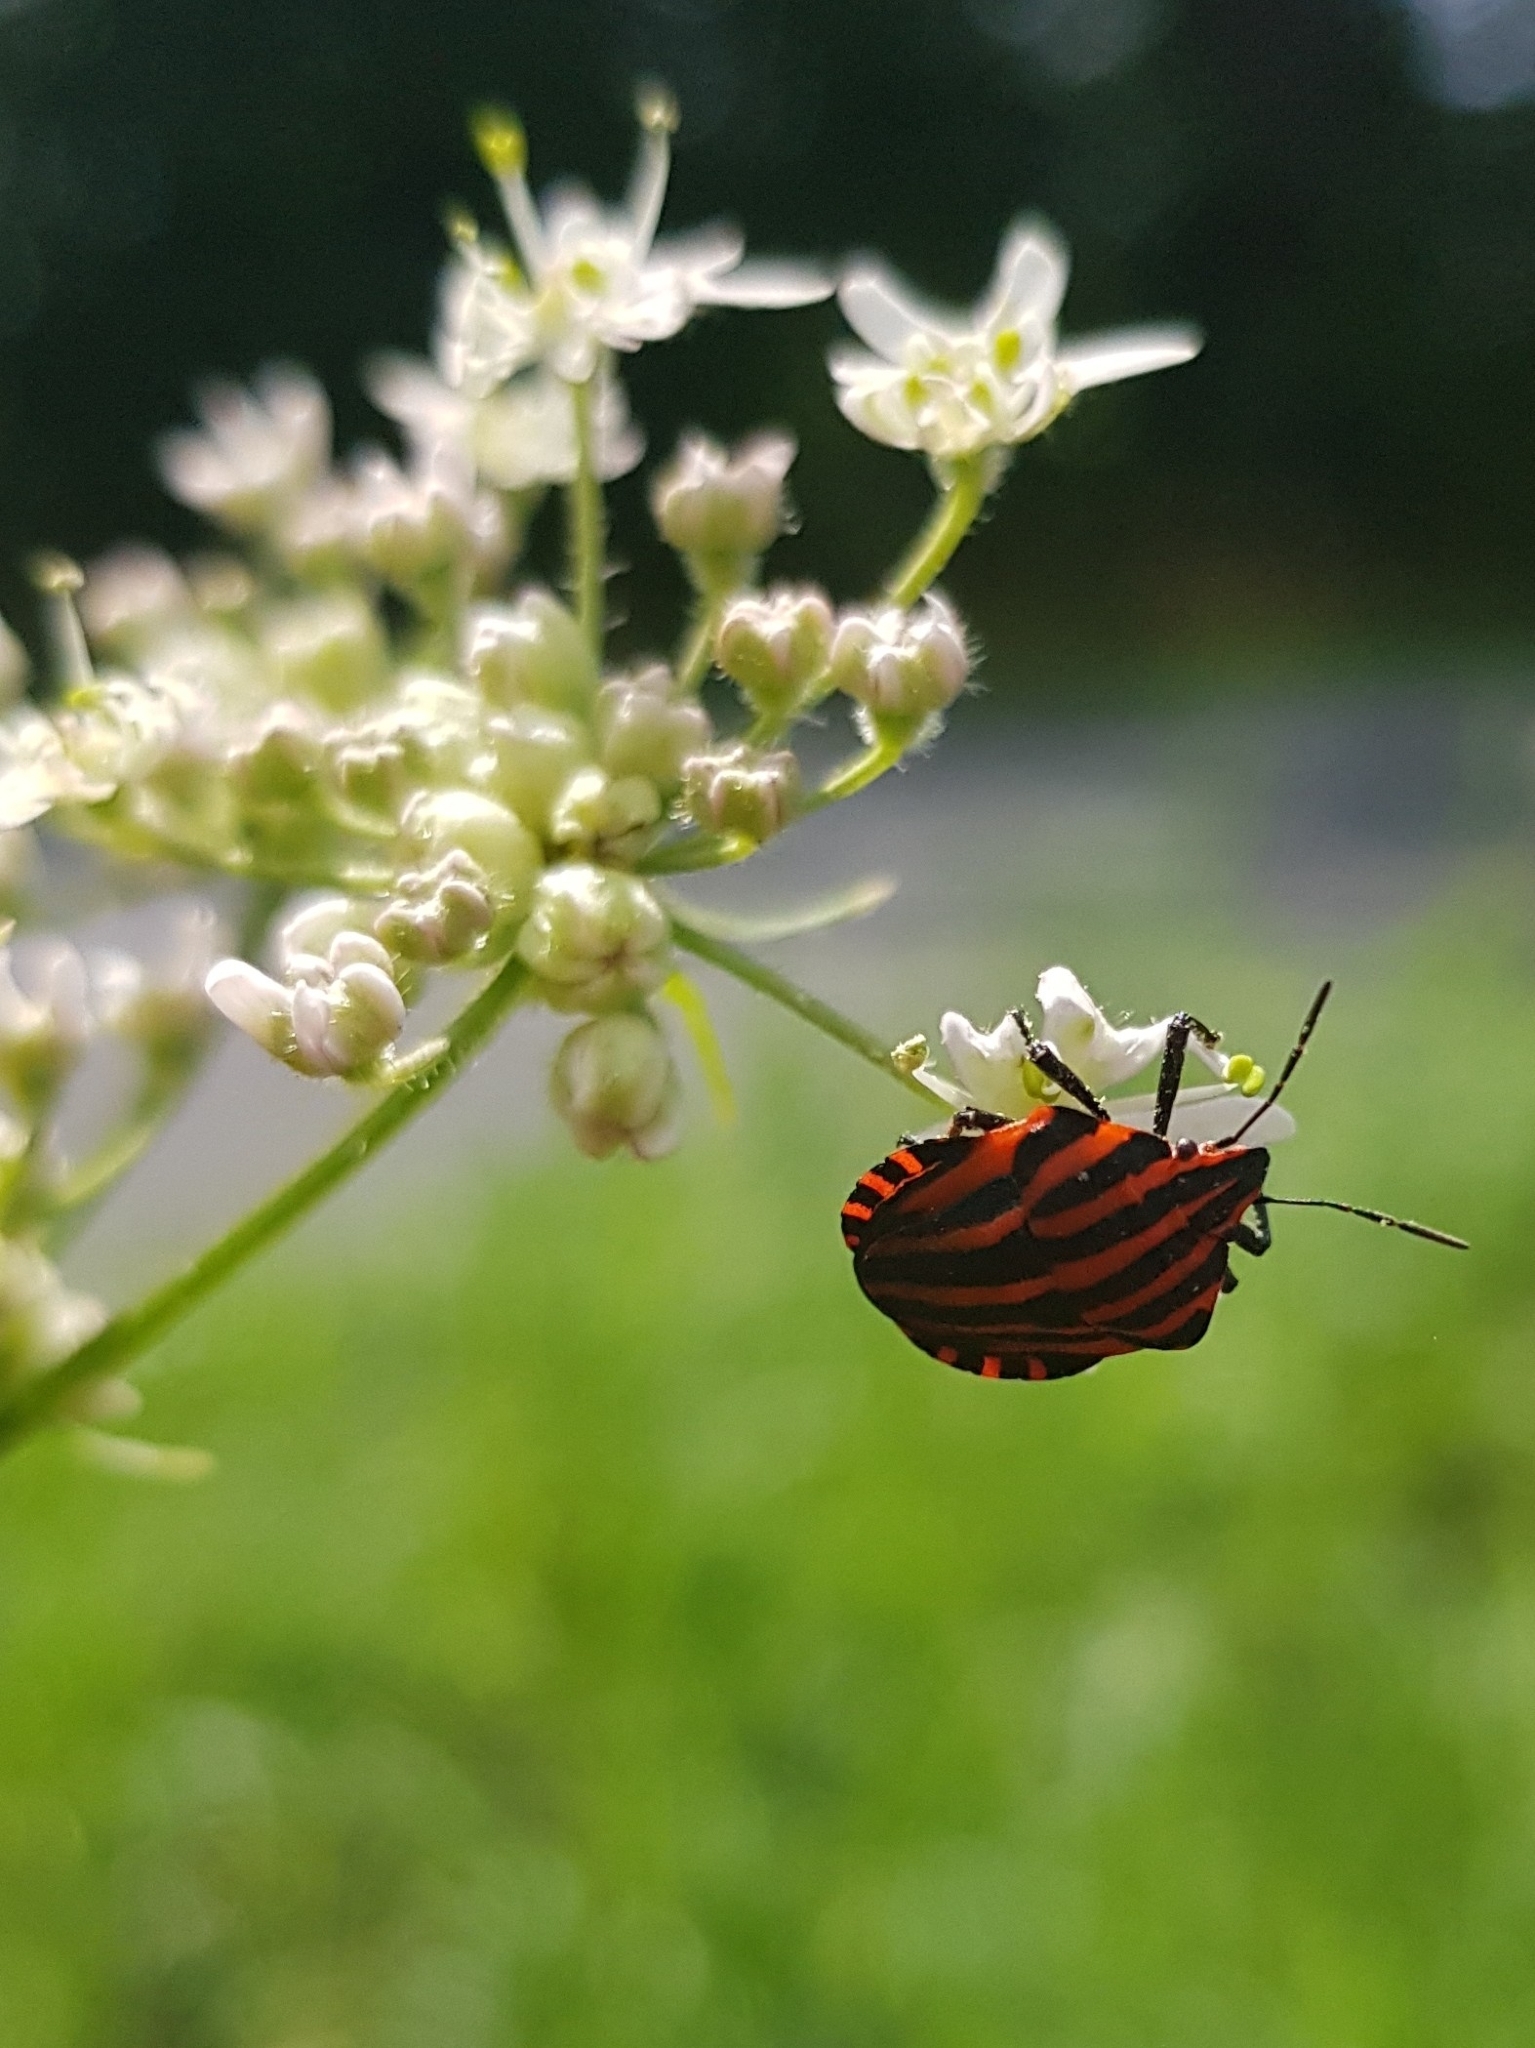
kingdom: Animalia
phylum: Arthropoda
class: Insecta
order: Hemiptera
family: Pentatomidae
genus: Graphosoma
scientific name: Graphosoma italicum
